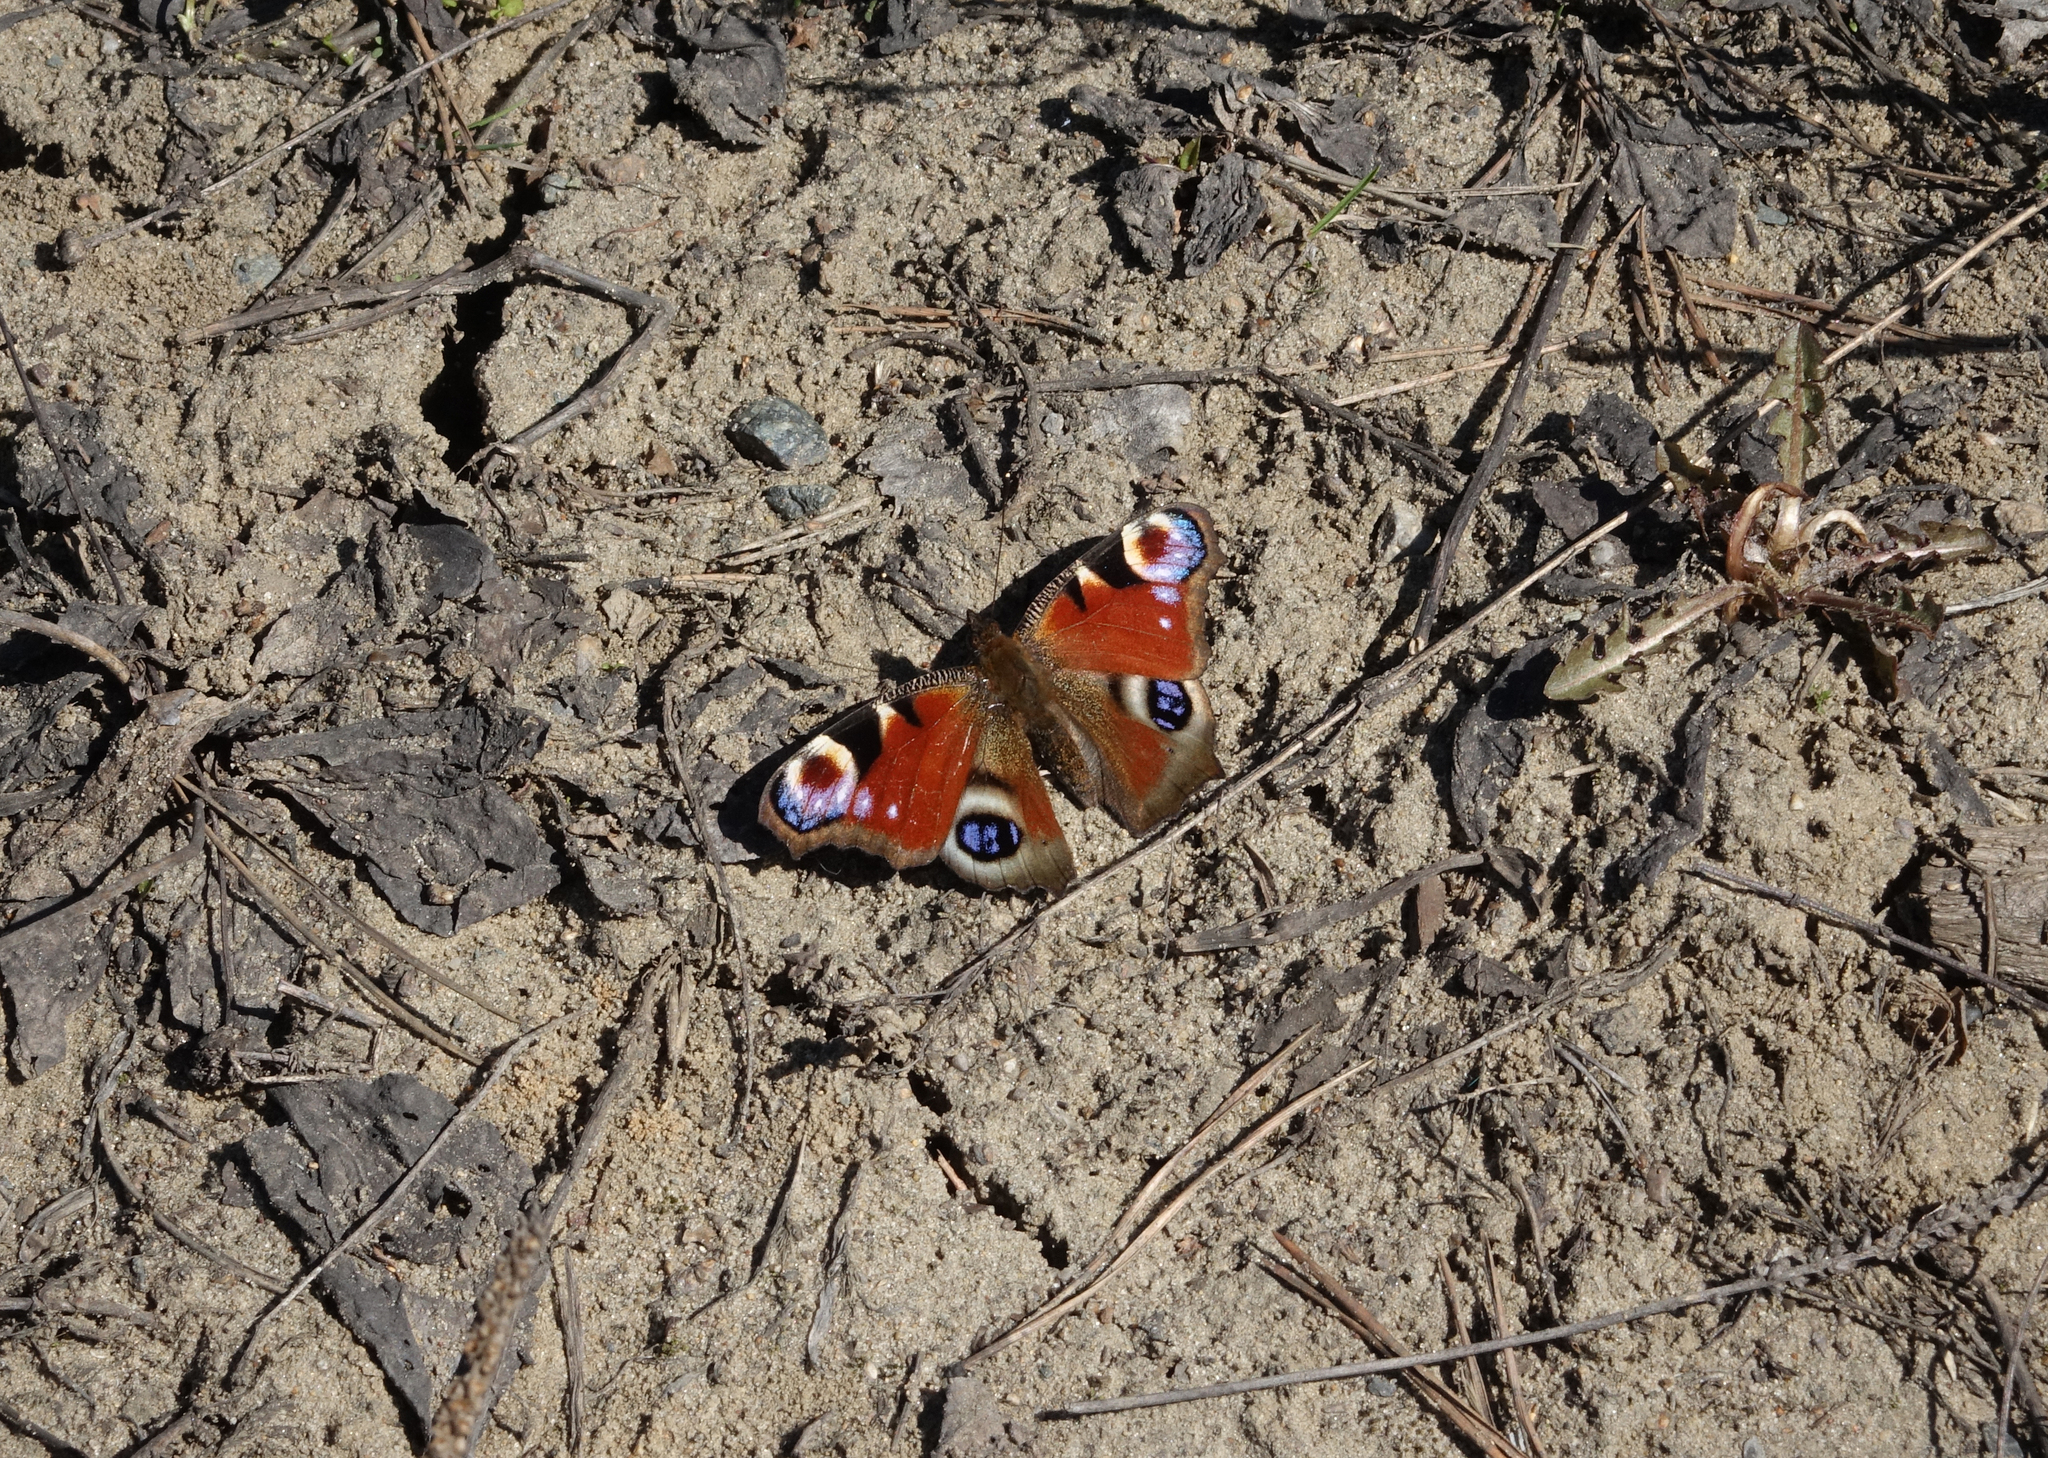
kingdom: Animalia
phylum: Arthropoda
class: Insecta
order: Lepidoptera
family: Nymphalidae
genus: Aglais
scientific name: Aglais io
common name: Peacock
